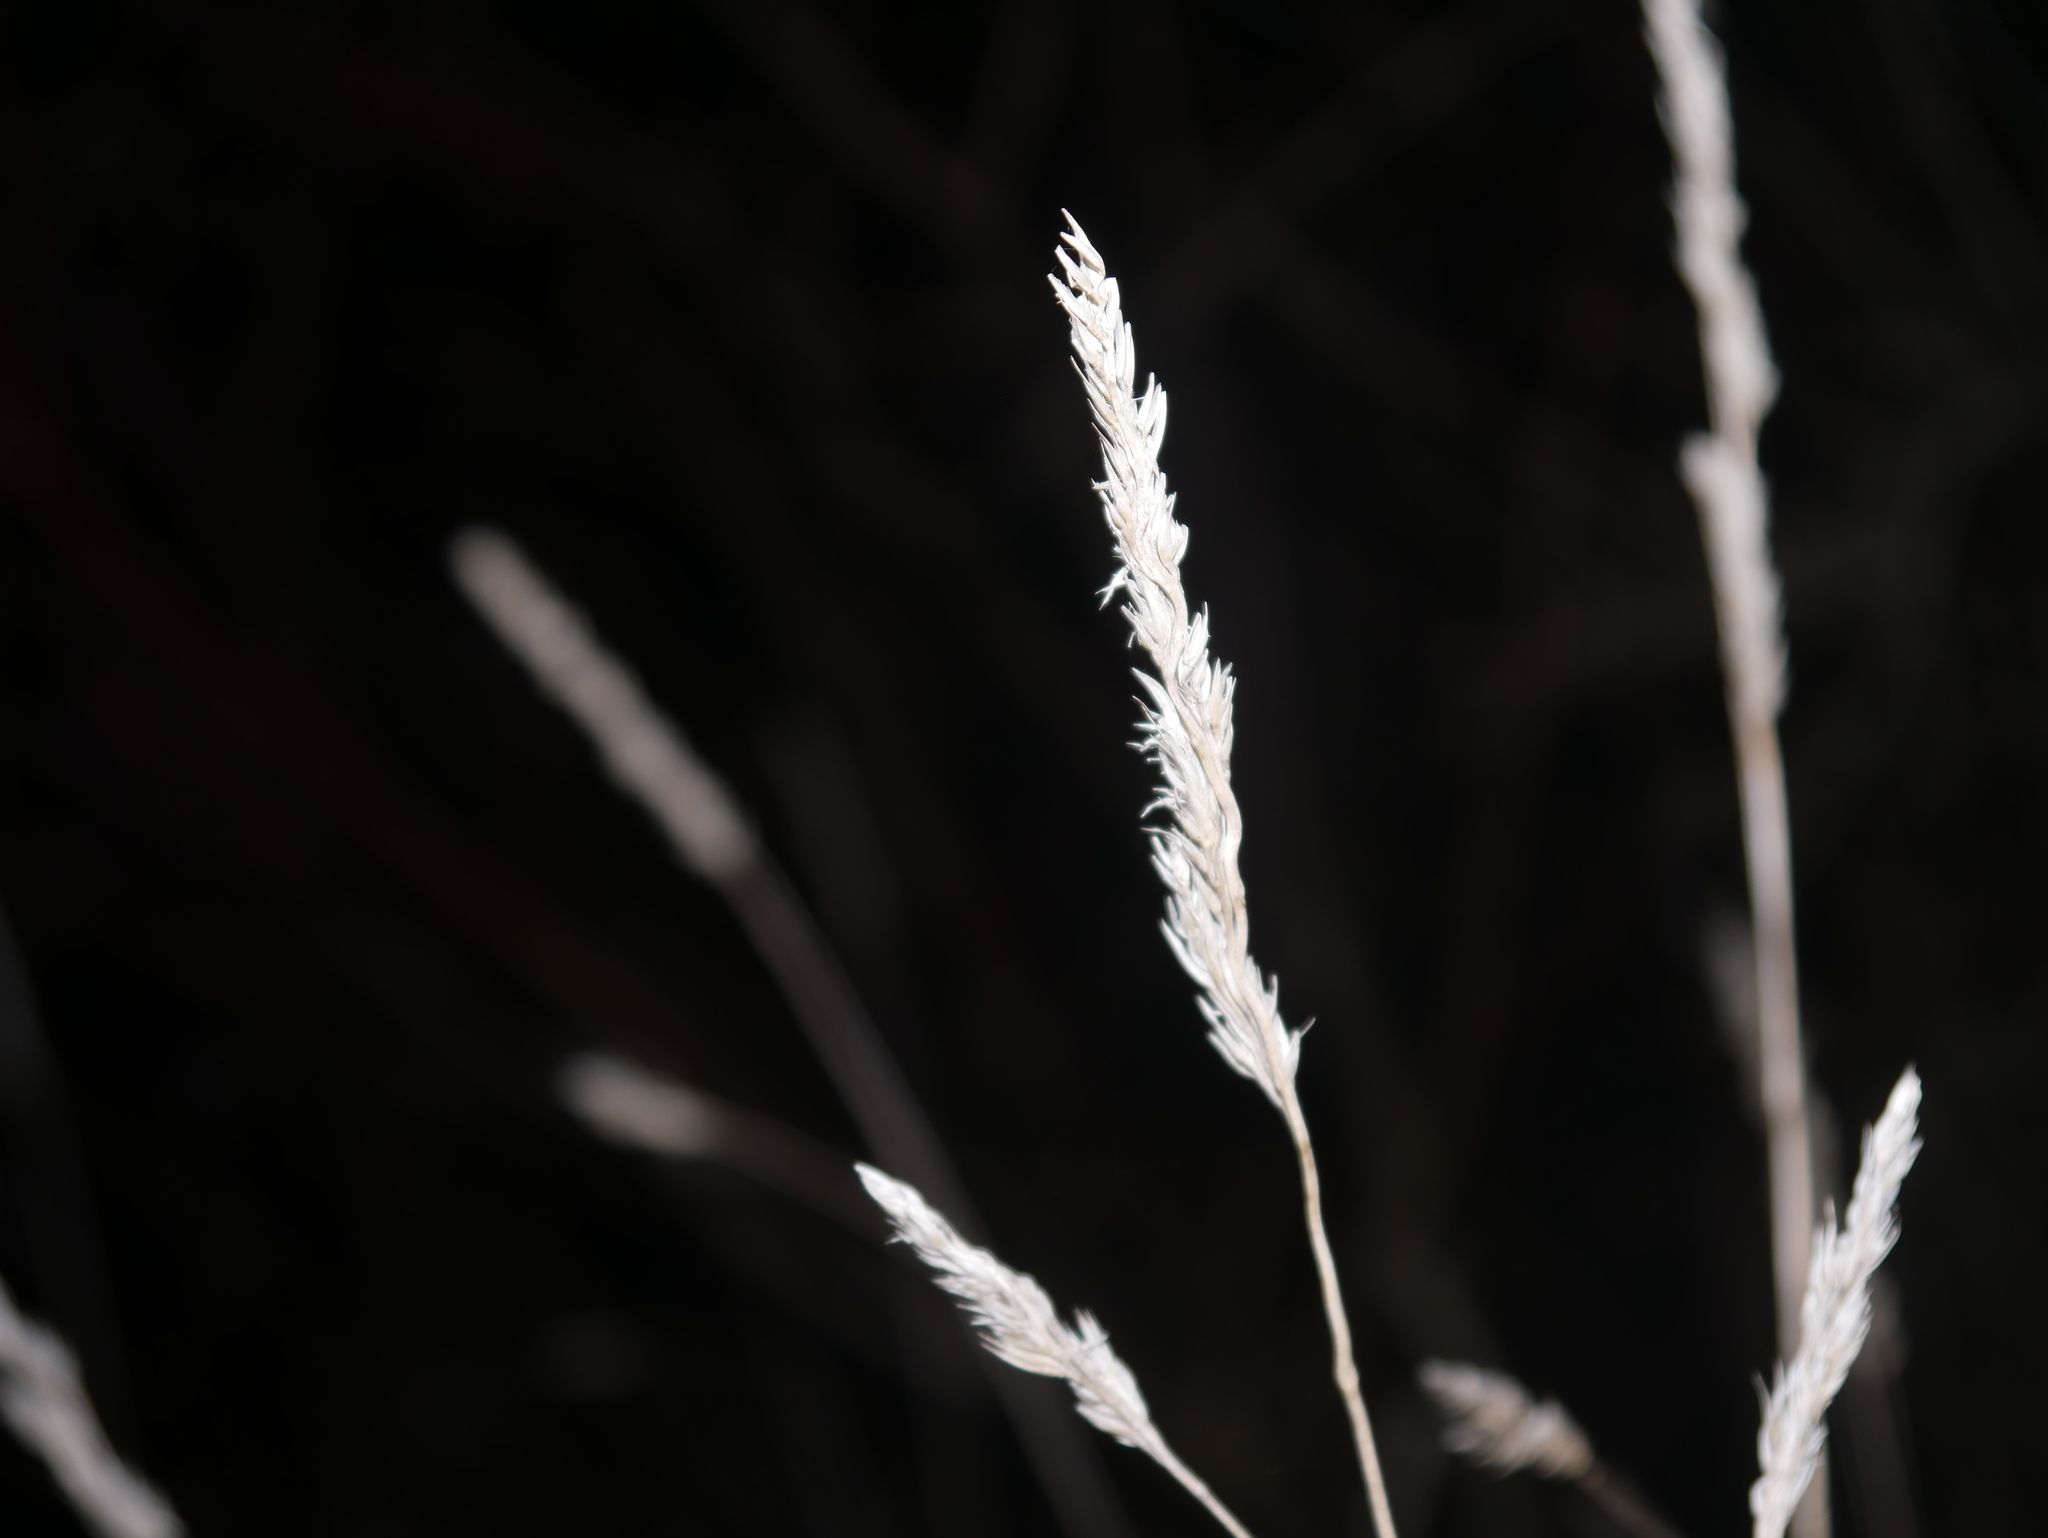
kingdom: Plantae
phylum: Tracheophyta
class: Liliopsida
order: Poales
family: Poaceae
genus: Dactylis
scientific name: Dactylis glomerata
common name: Orchardgrass
